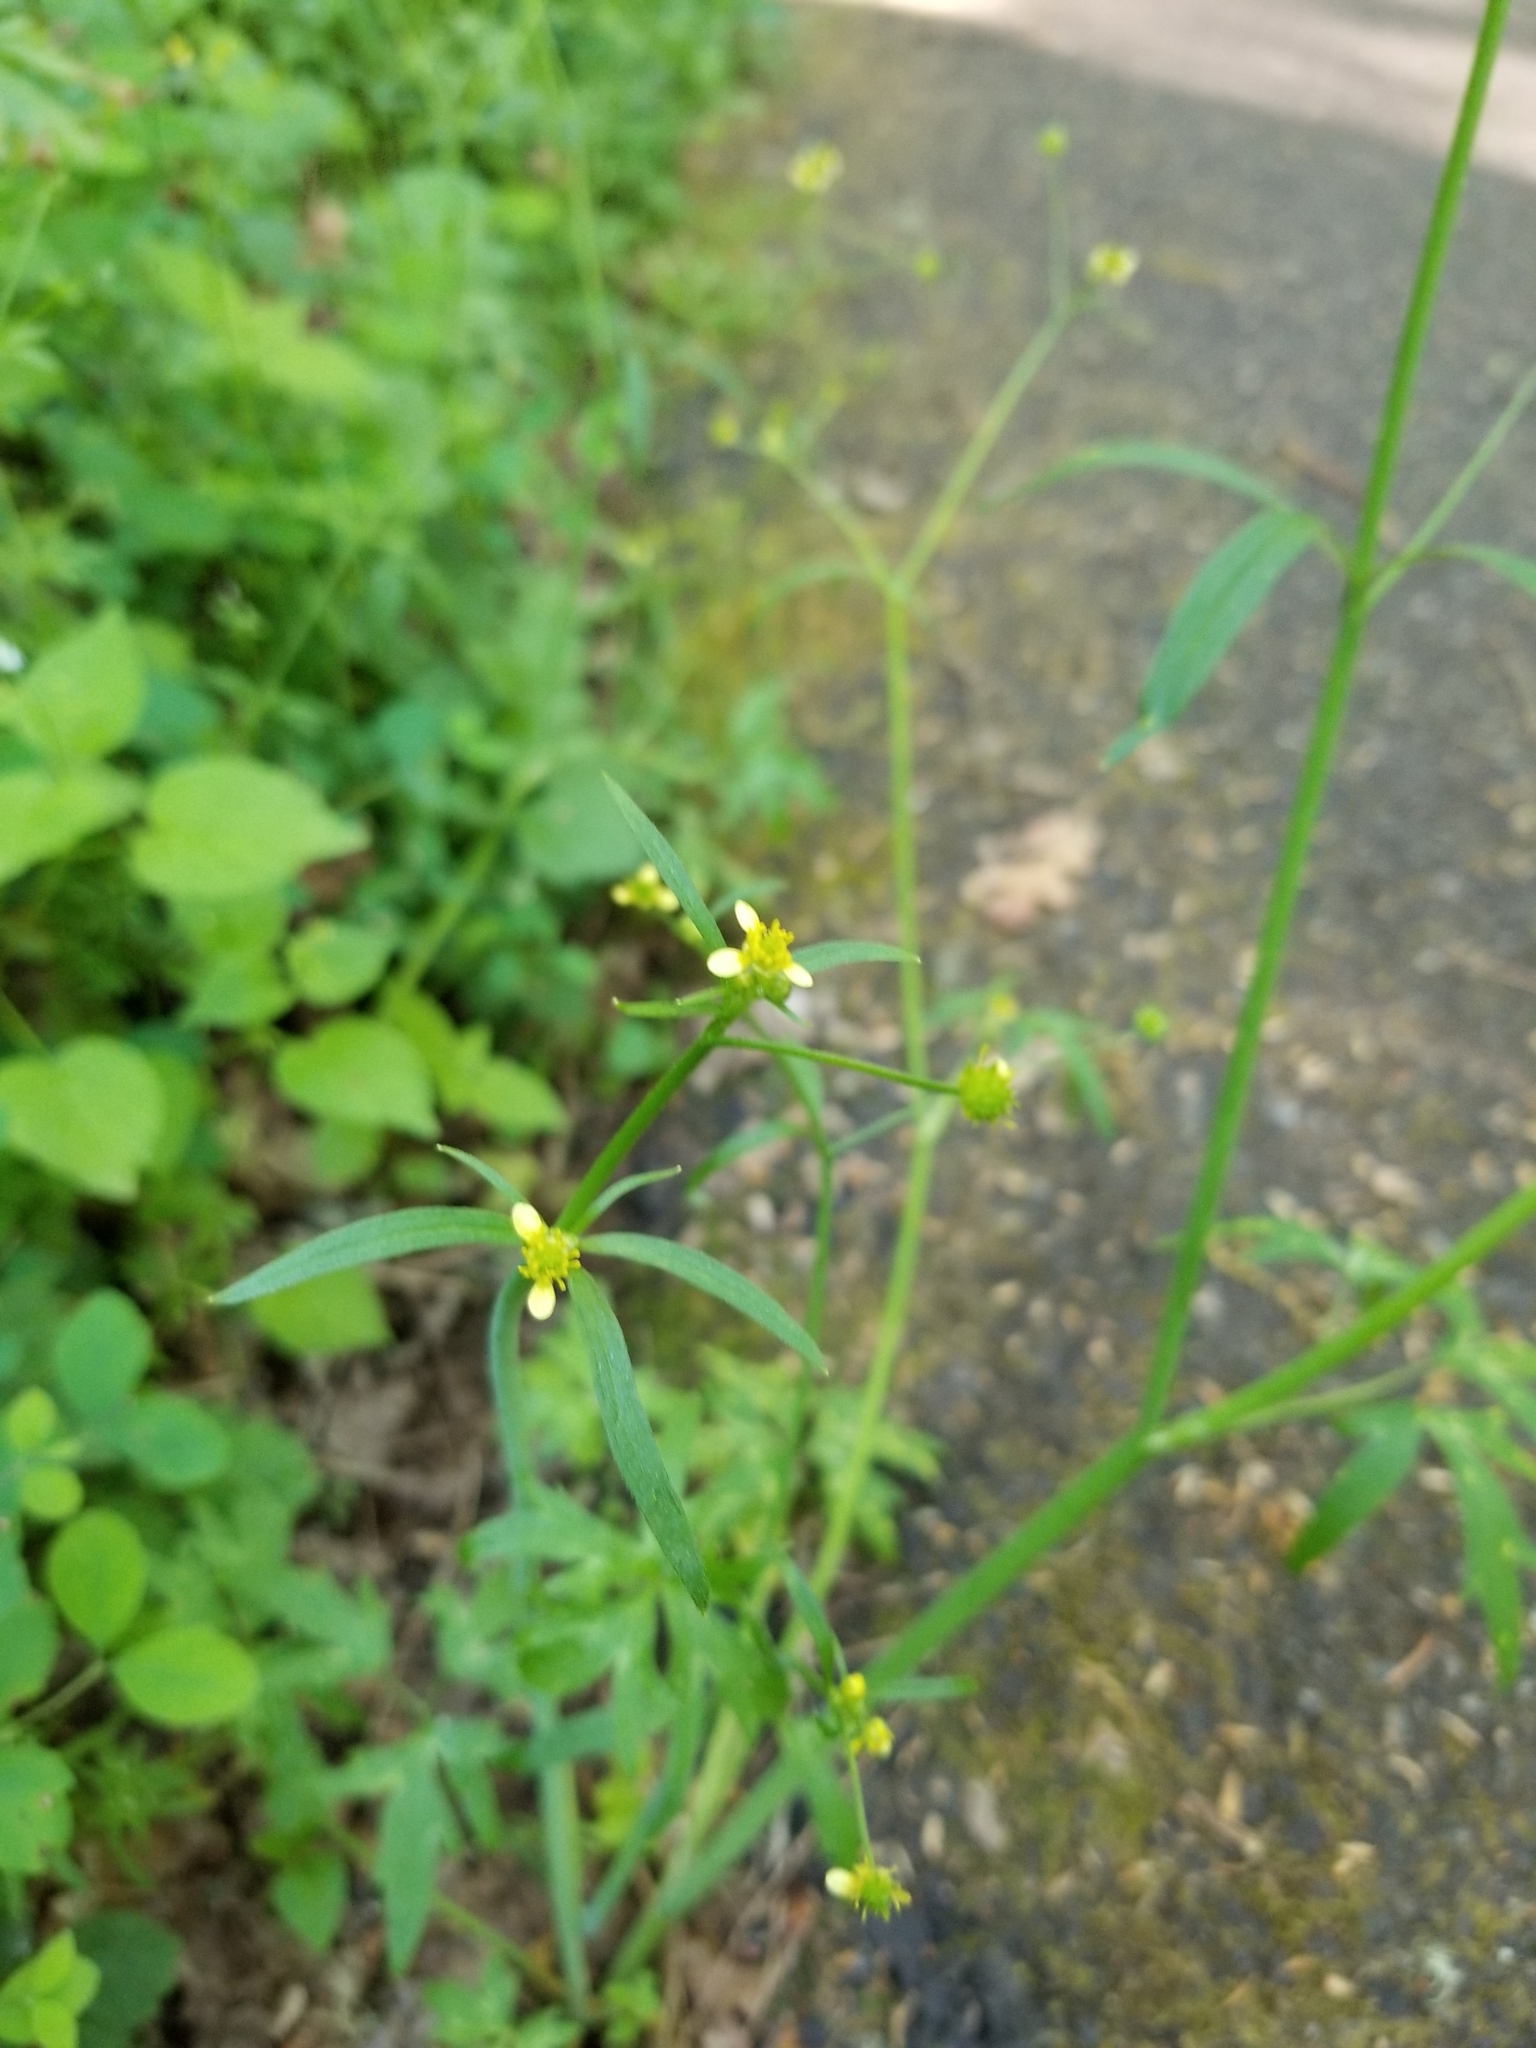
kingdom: Plantae
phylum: Tracheophyta
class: Magnoliopsida
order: Ranunculales
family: Ranunculaceae
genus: Ranunculus
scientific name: Ranunculus uncinatus
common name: Little buttercup
